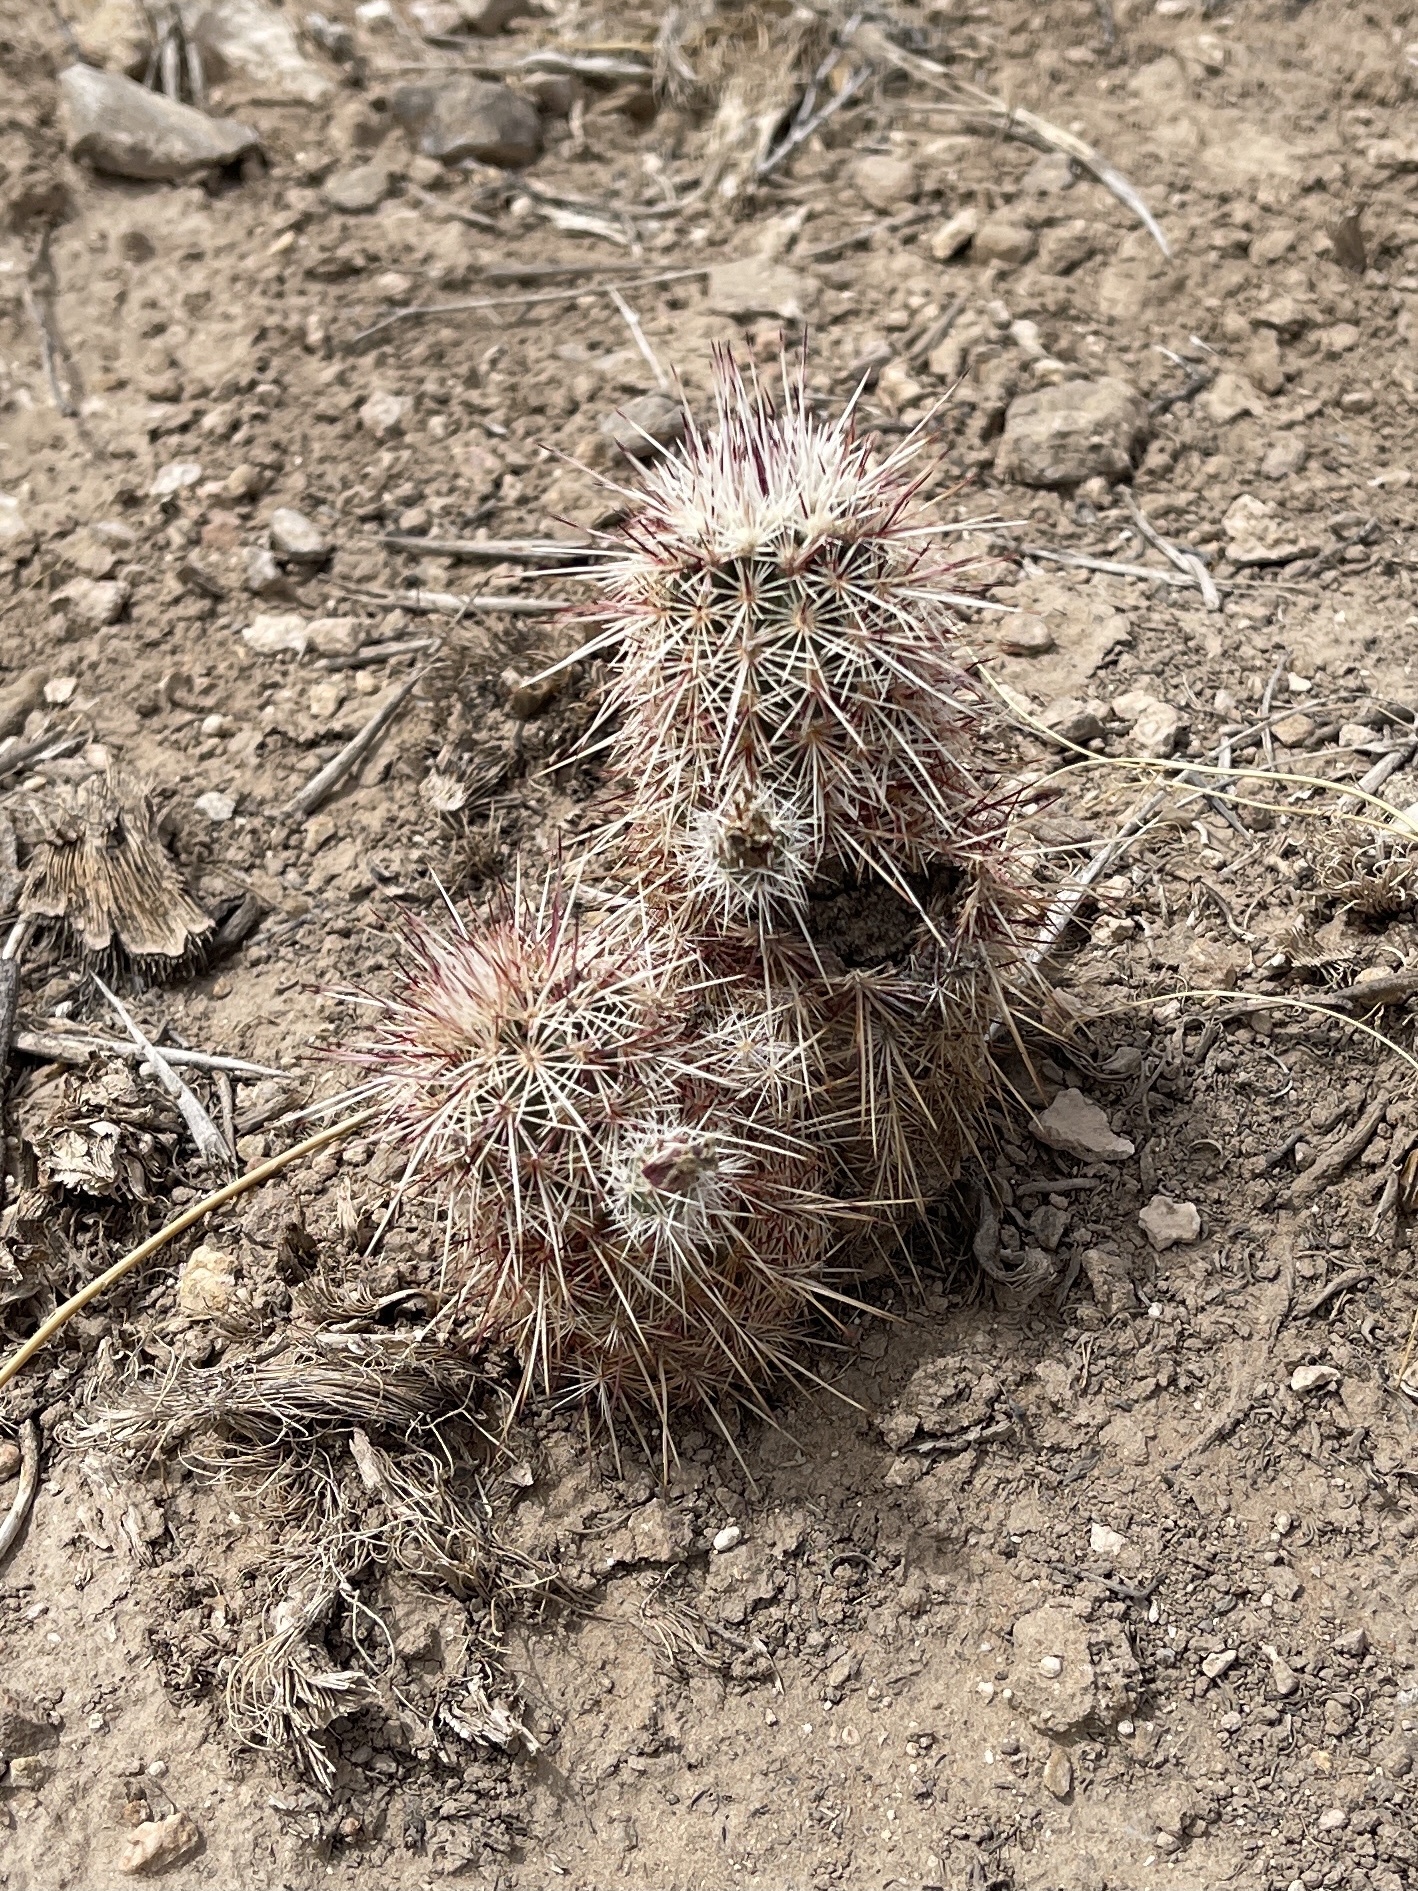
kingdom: Plantae
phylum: Tracheophyta
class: Magnoliopsida
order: Caryophyllales
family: Cactaceae
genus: Echinocereus
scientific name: Echinocereus viridiflorus
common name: Nylon hedgehog cactus
